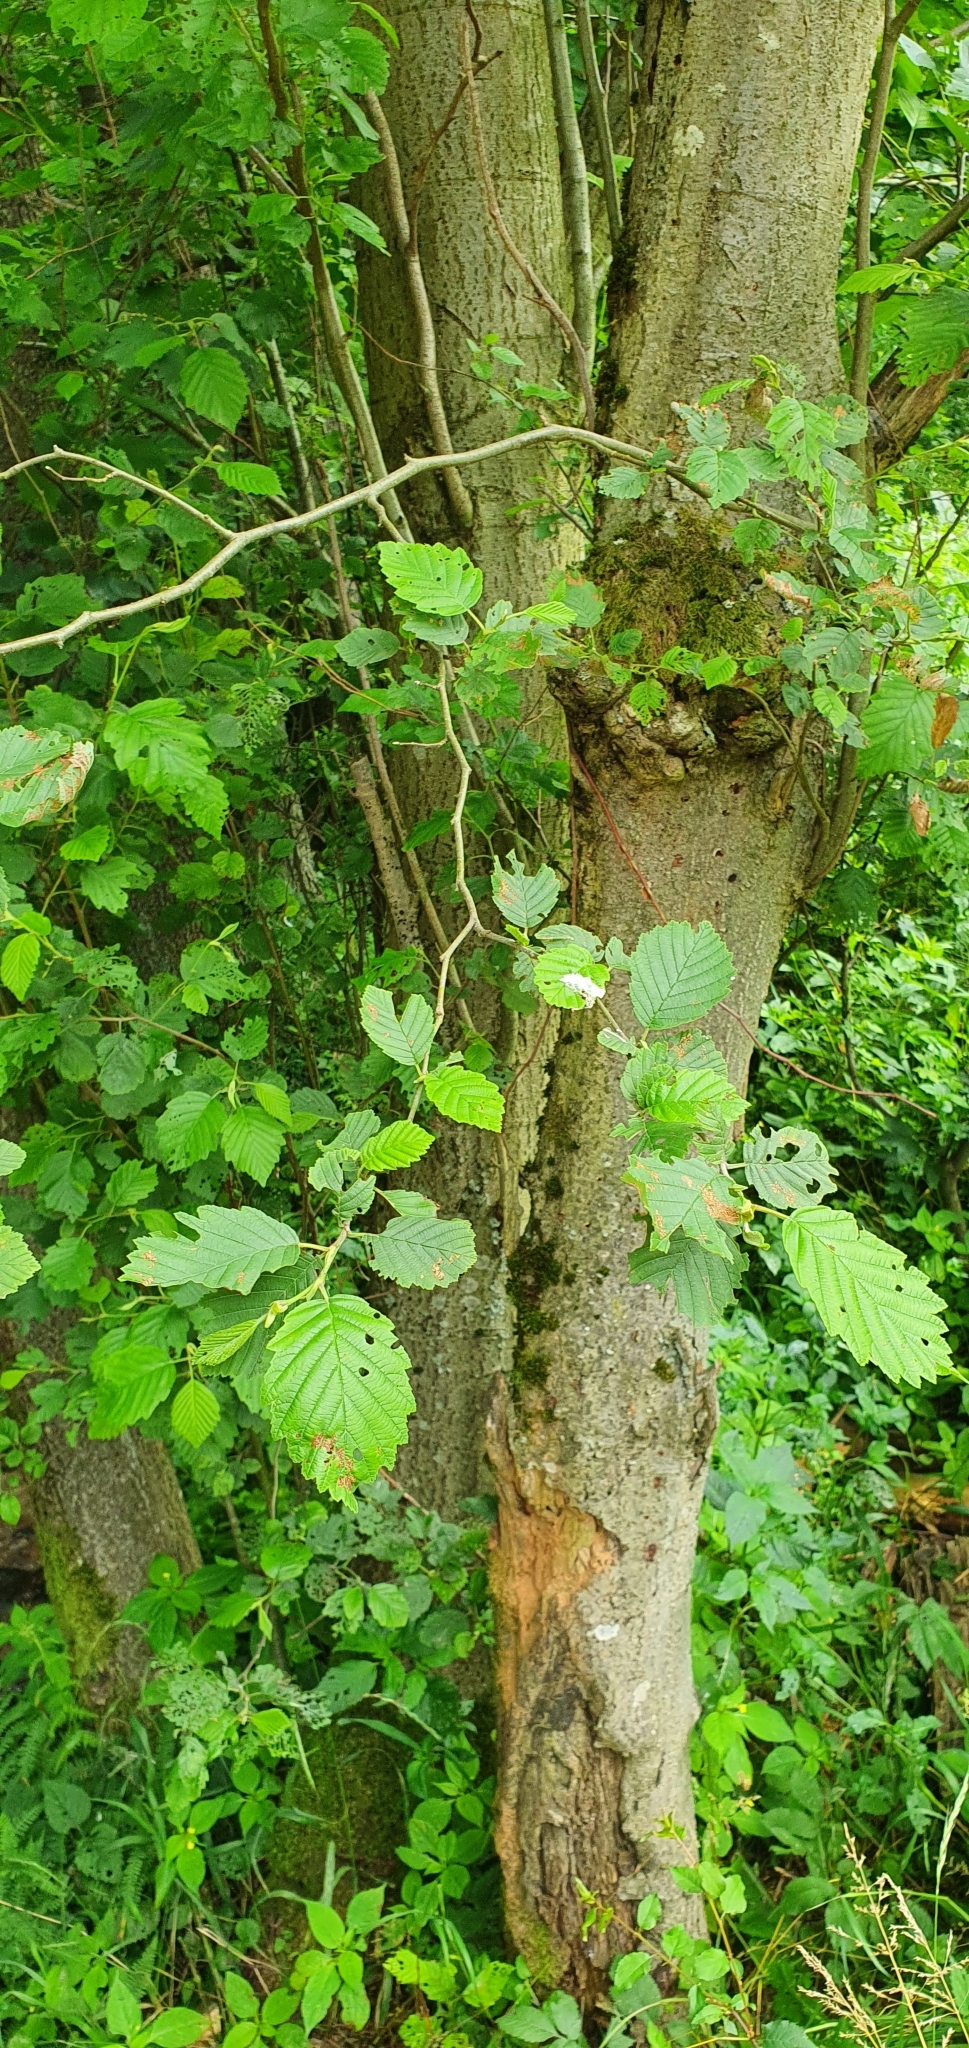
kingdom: Plantae
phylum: Tracheophyta
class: Magnoliopsida
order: Fagales
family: Betulaceae
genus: Alnus
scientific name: Alnus incana
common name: Grey alder
